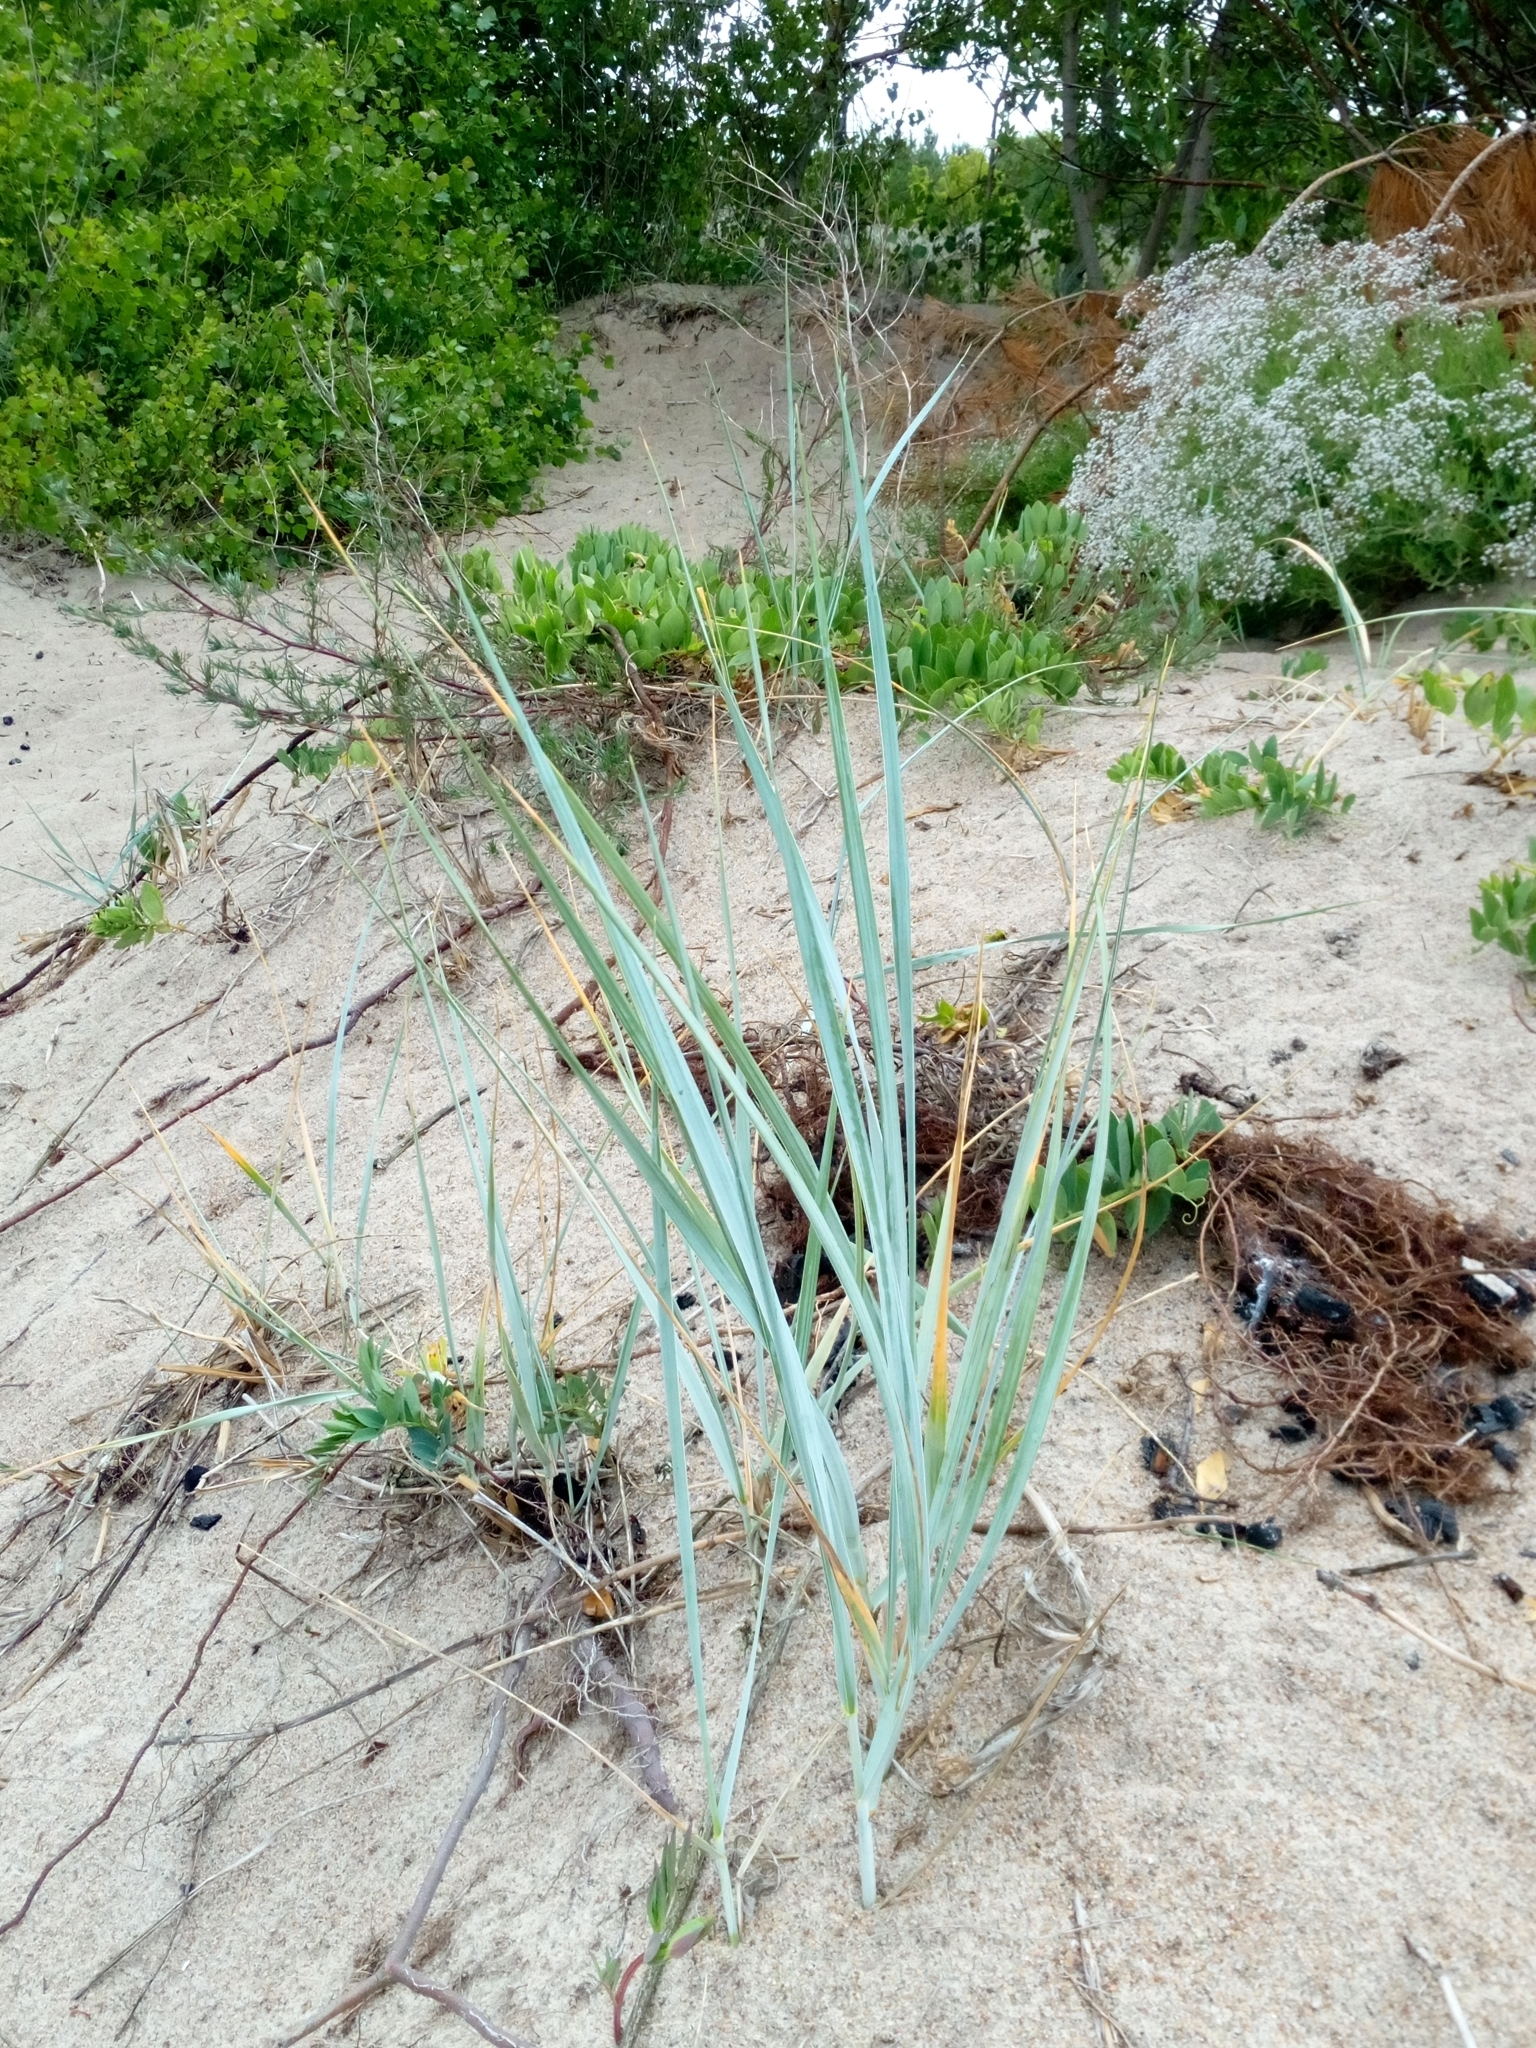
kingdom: Plantae
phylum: Tracheophyta
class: Liliopsida
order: Poales
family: Poaceae
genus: Leymus
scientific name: Leymus arenarius
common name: Lyme-grass
